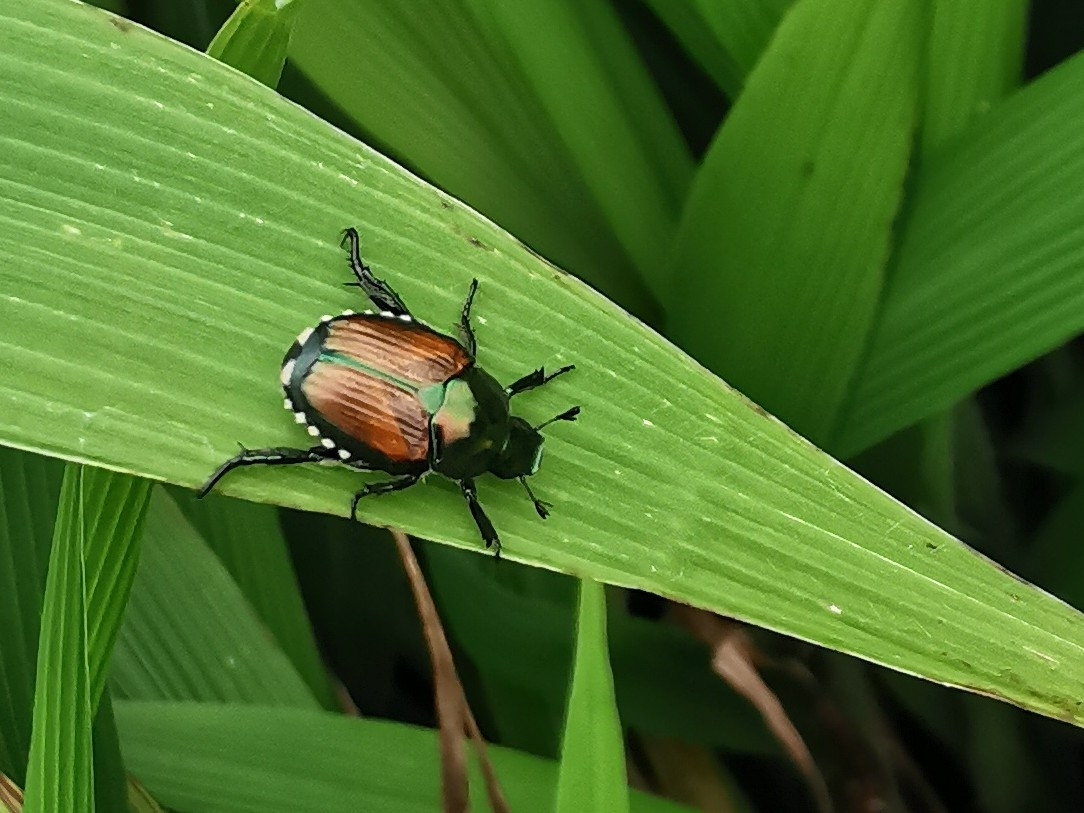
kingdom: Animalia
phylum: Arthropoda
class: Insecta
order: Coleoptera
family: Scarabaeidae
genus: Popillia
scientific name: Popillia japonica
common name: Japanese beetle
